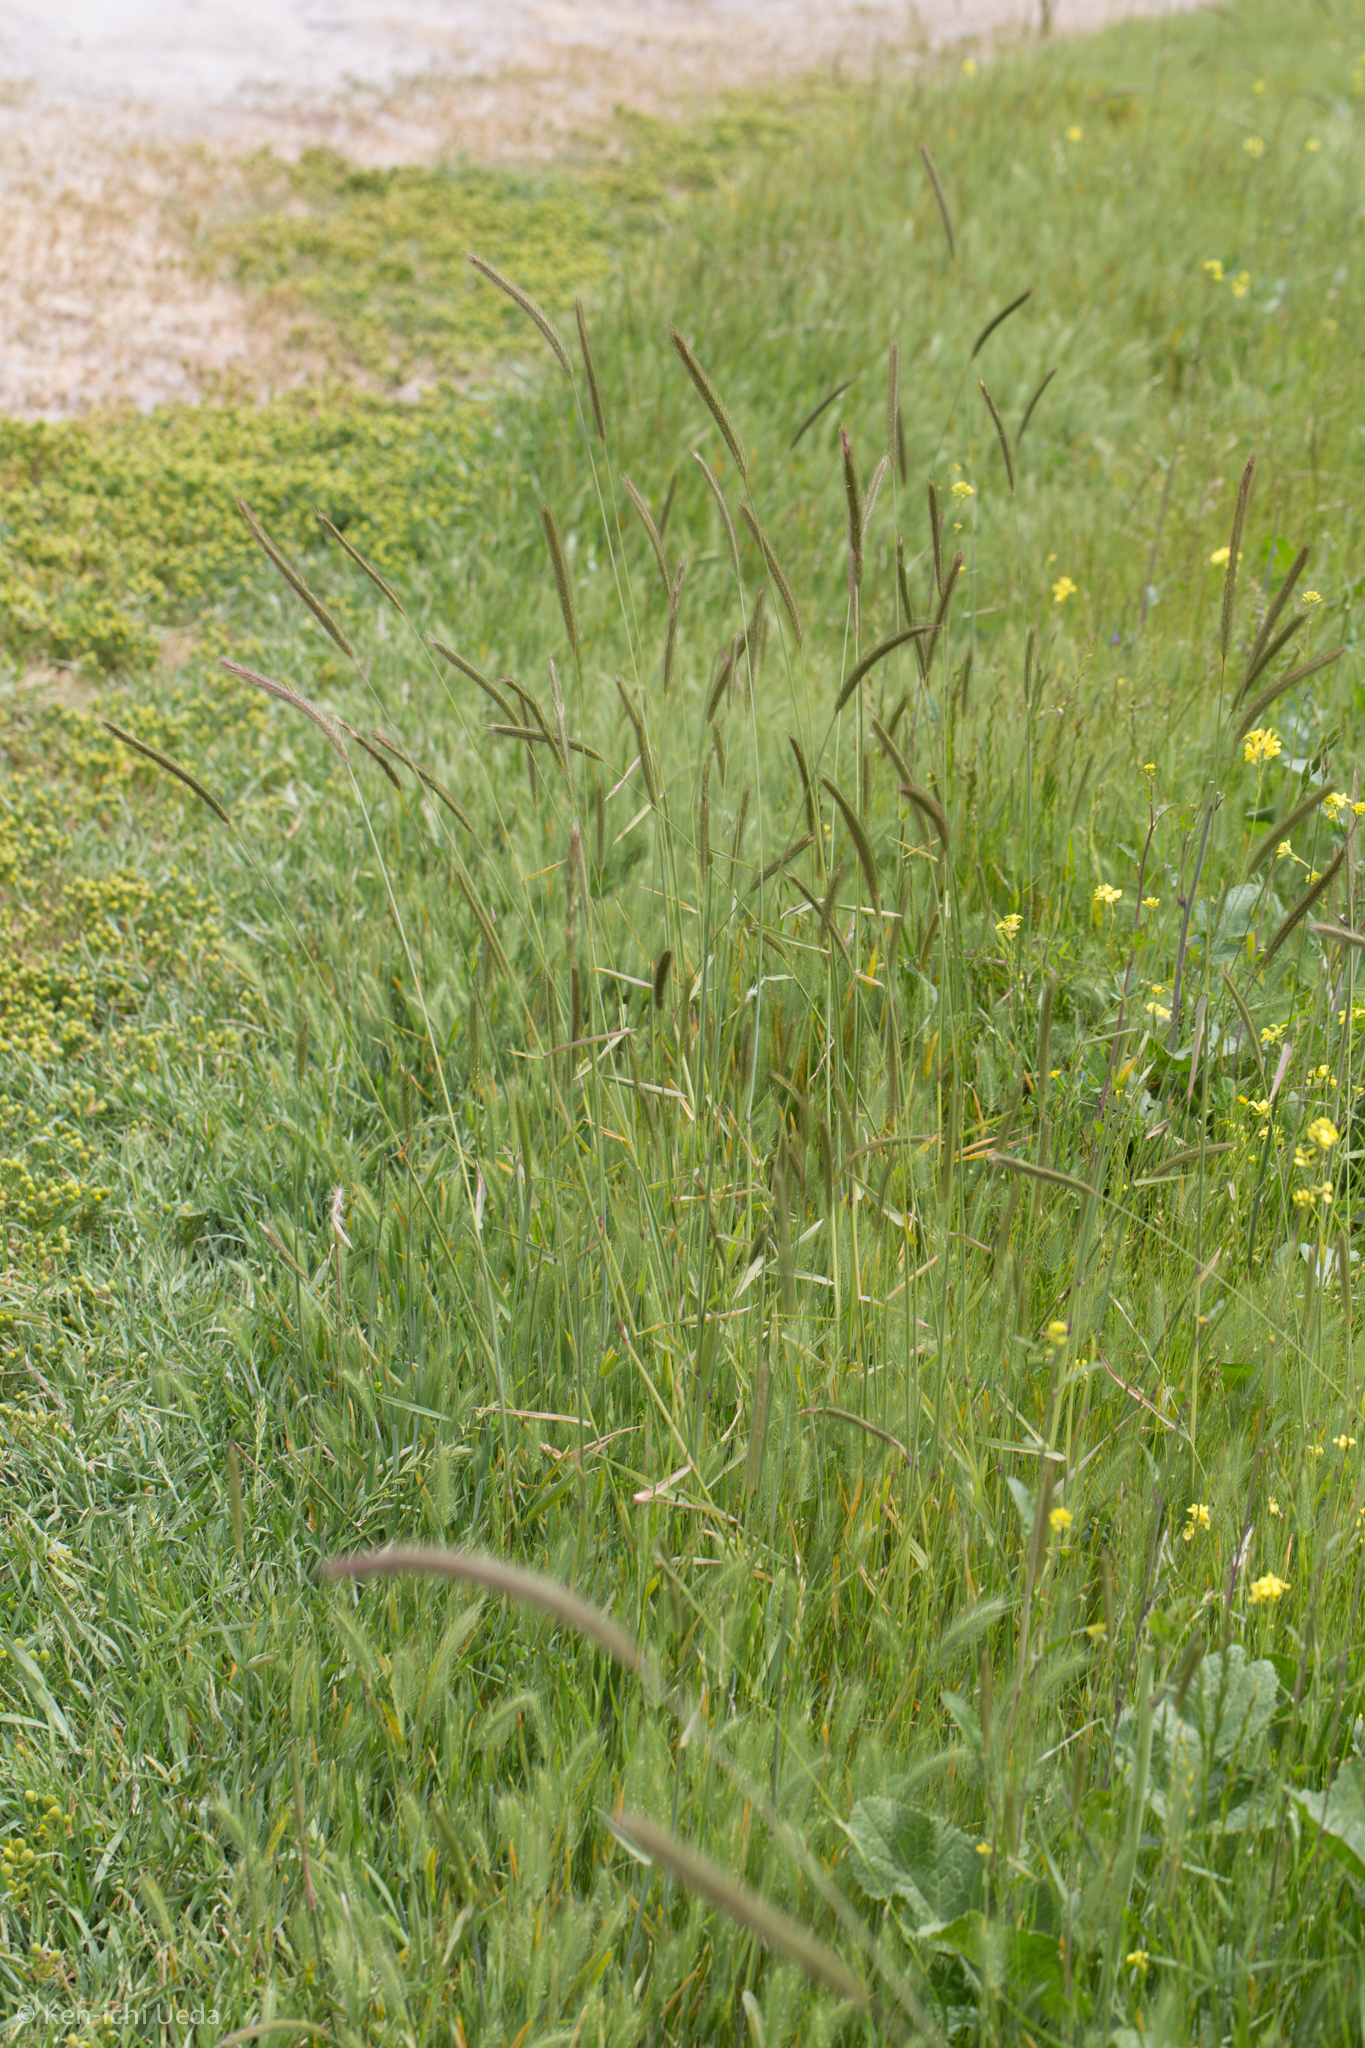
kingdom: Plantae
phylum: Tracheophyta
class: Liliopsida
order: Poales
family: Poaceae
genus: Hordeum
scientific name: Hordeum brachyantherum
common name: Meadow barley
